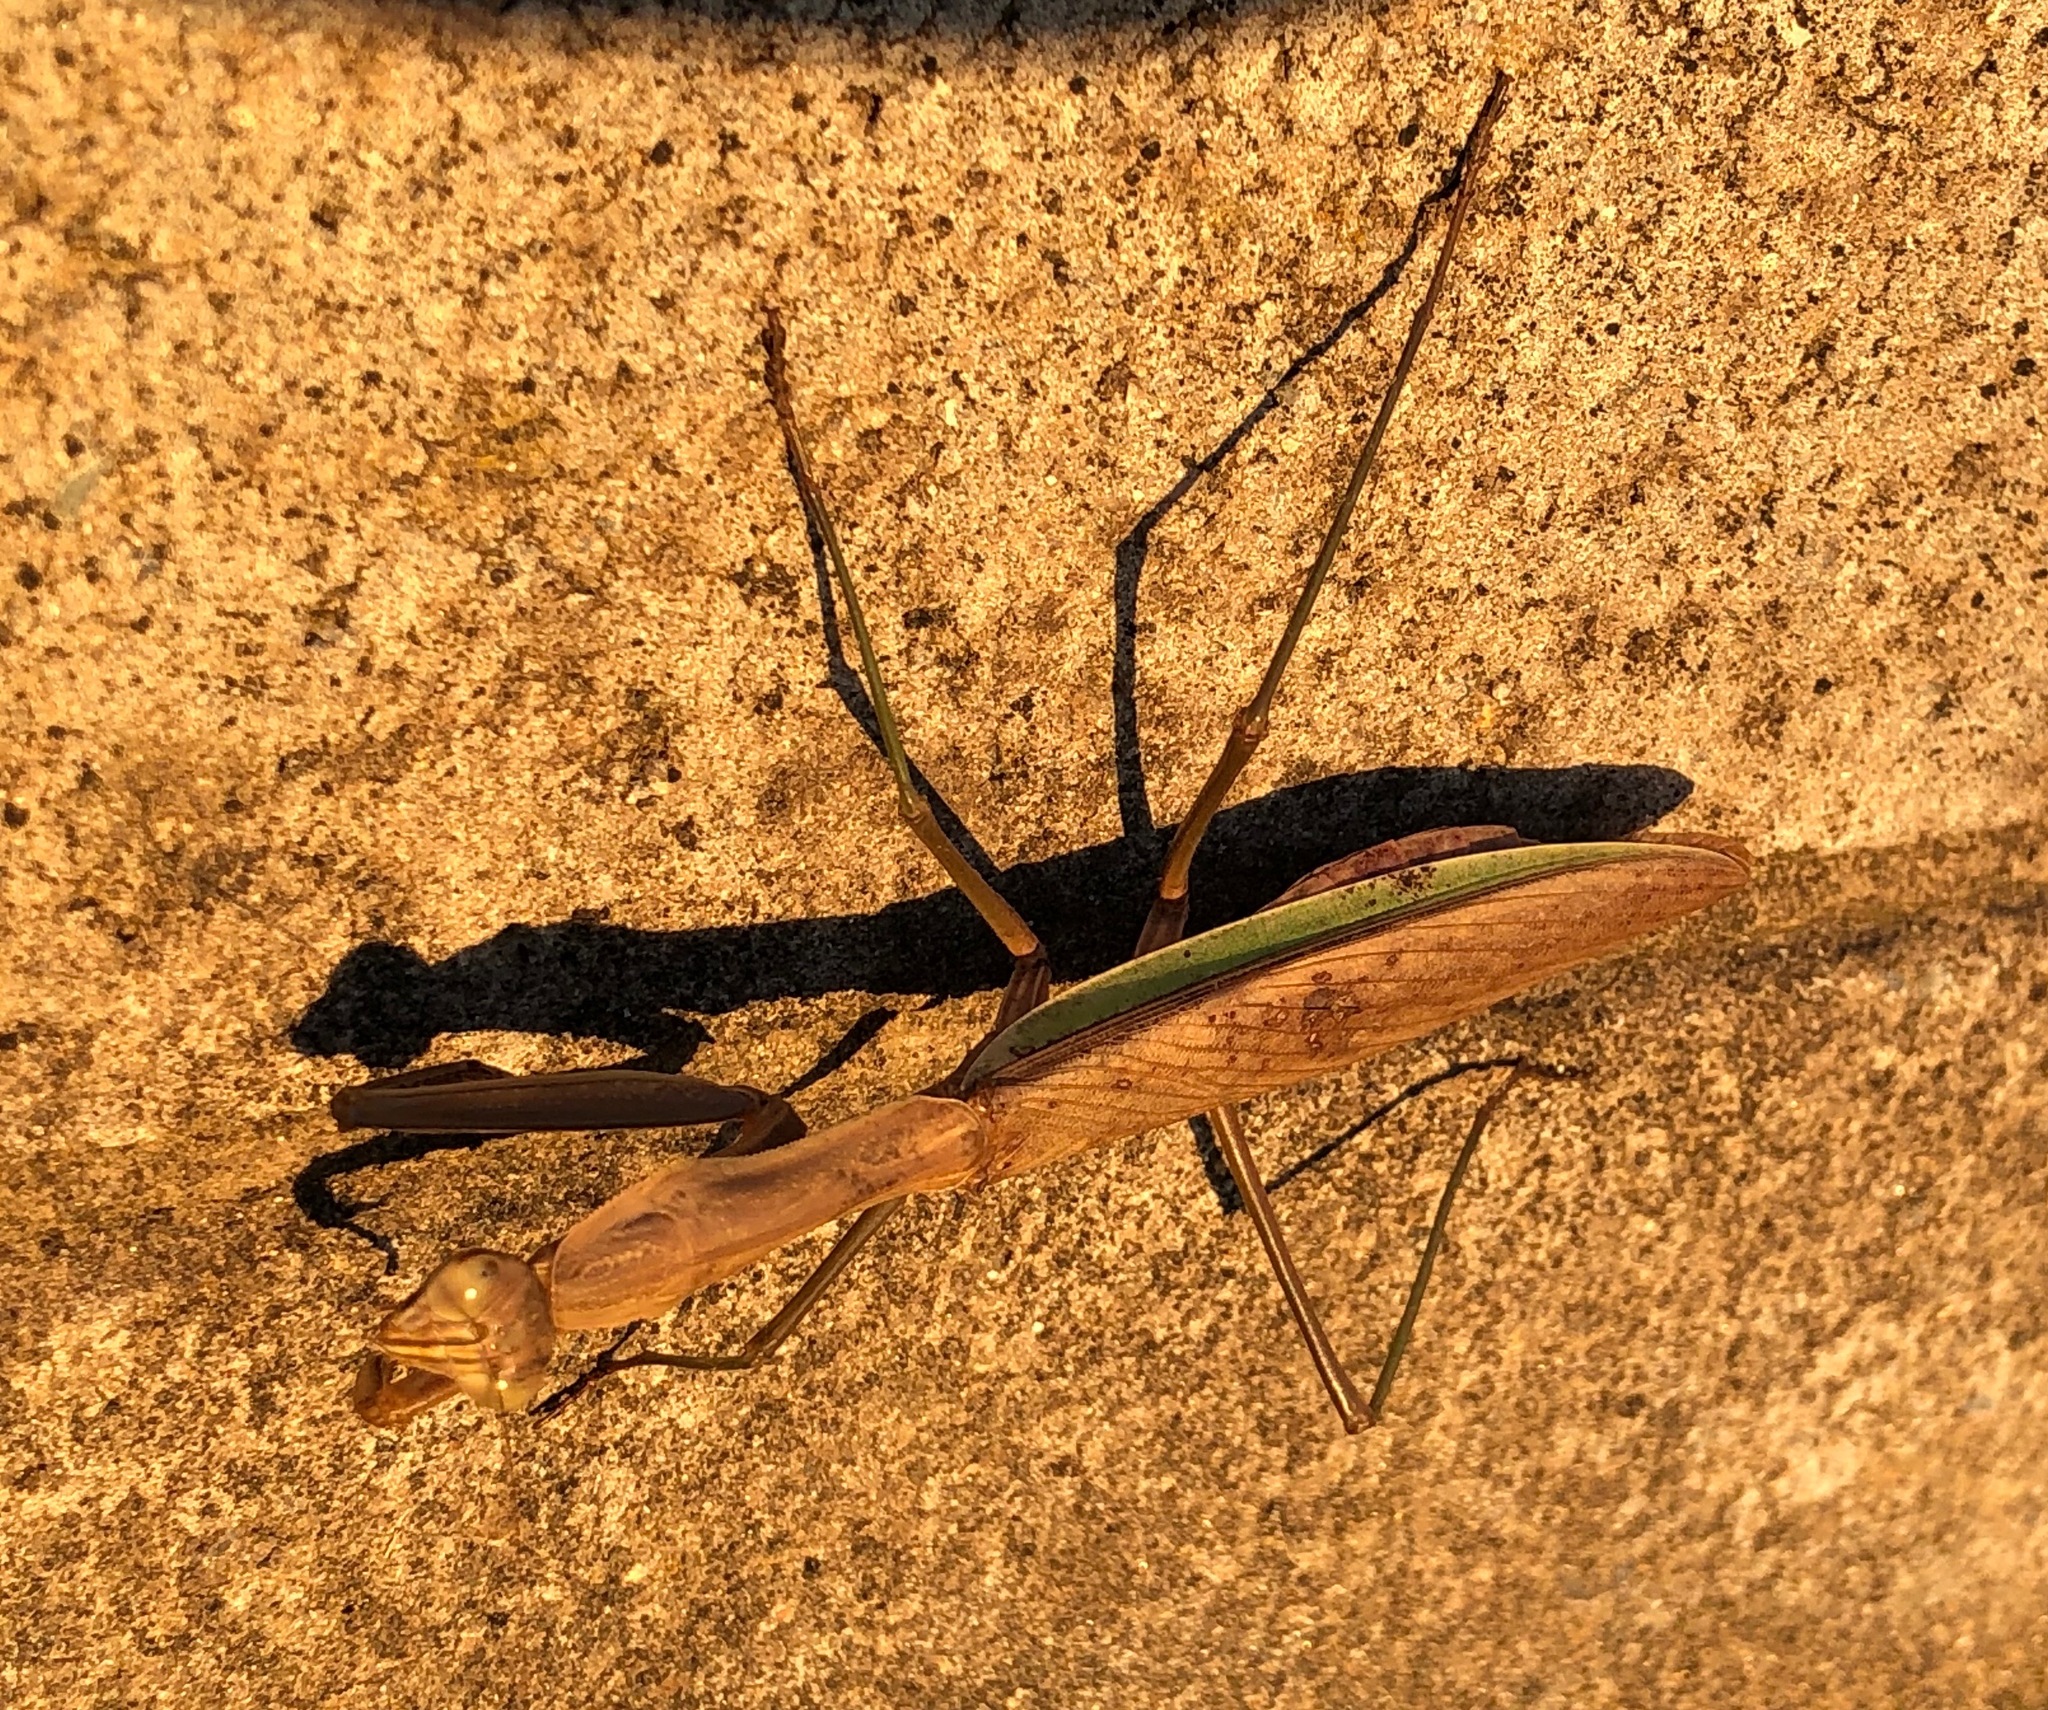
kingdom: Animalia
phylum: Arthropoda
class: Insecta
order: Mantodea
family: Mantidae
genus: Tenodera
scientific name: Tenodera sinensis
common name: Chinese mantis
